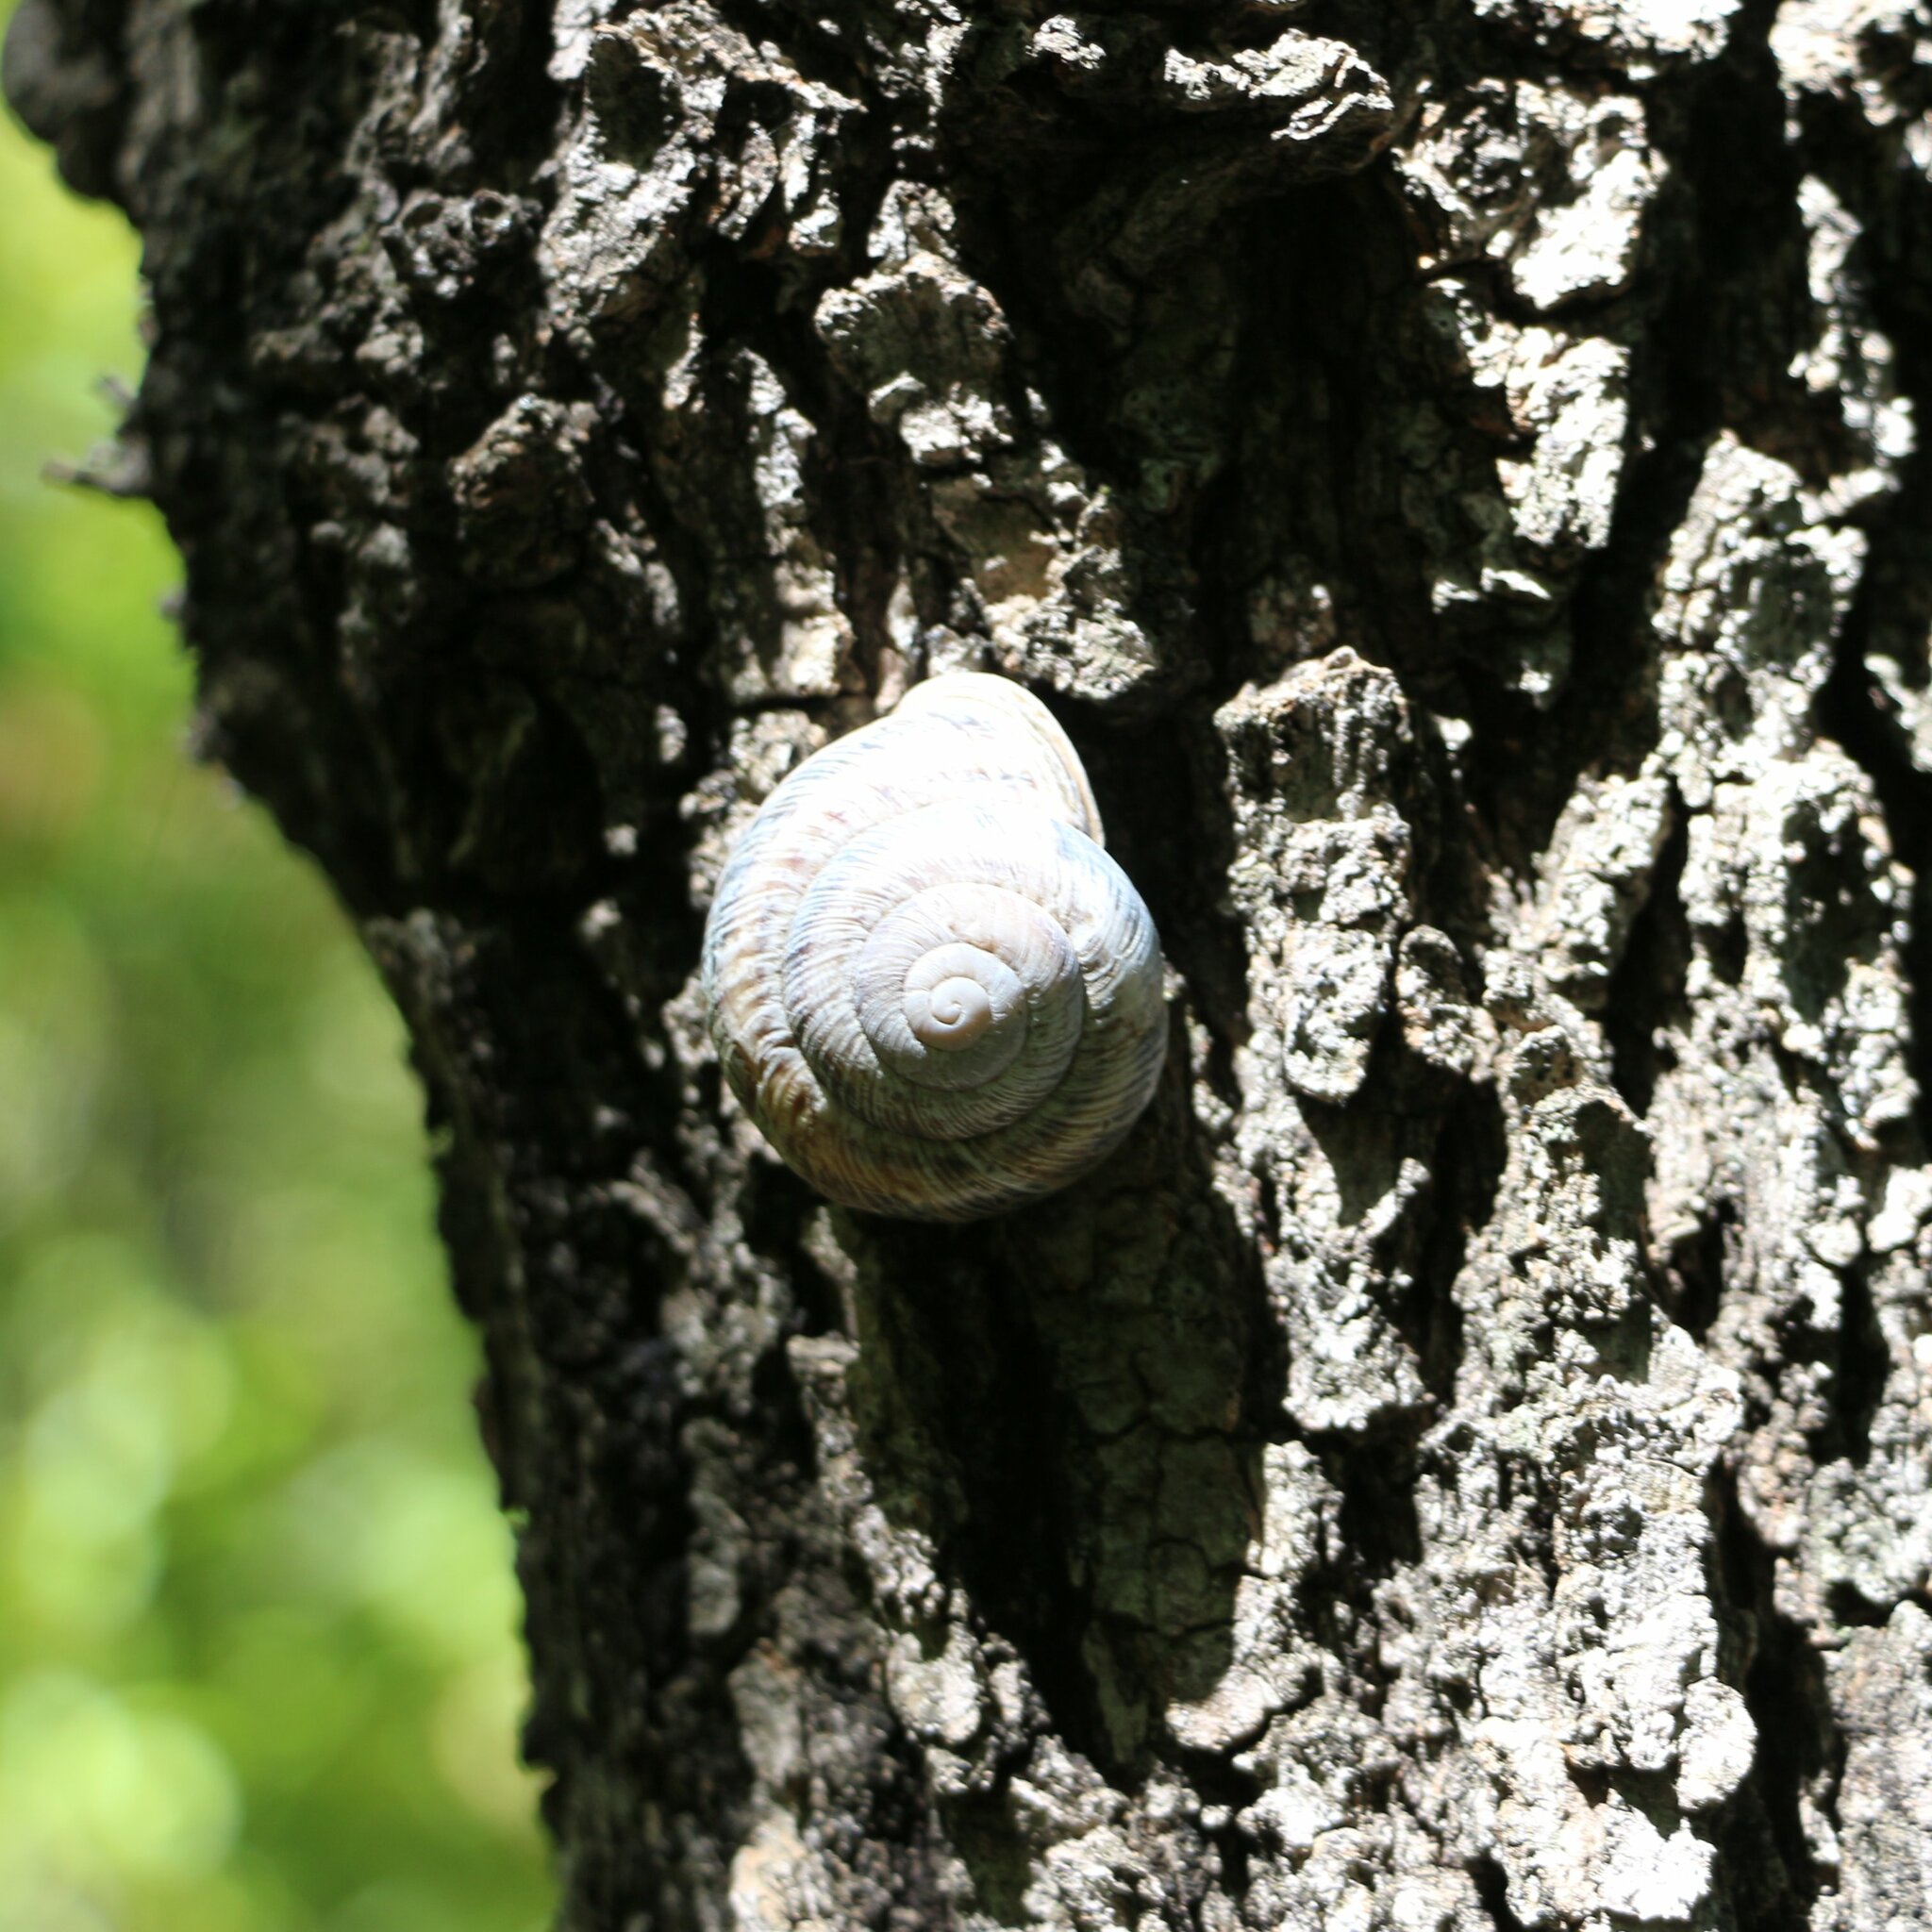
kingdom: Animalia
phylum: Mollusca
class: Gastropoda
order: Stylommatophora
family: Helicidae
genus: Caucasotachea
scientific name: Caucasotachea atrolabiata
